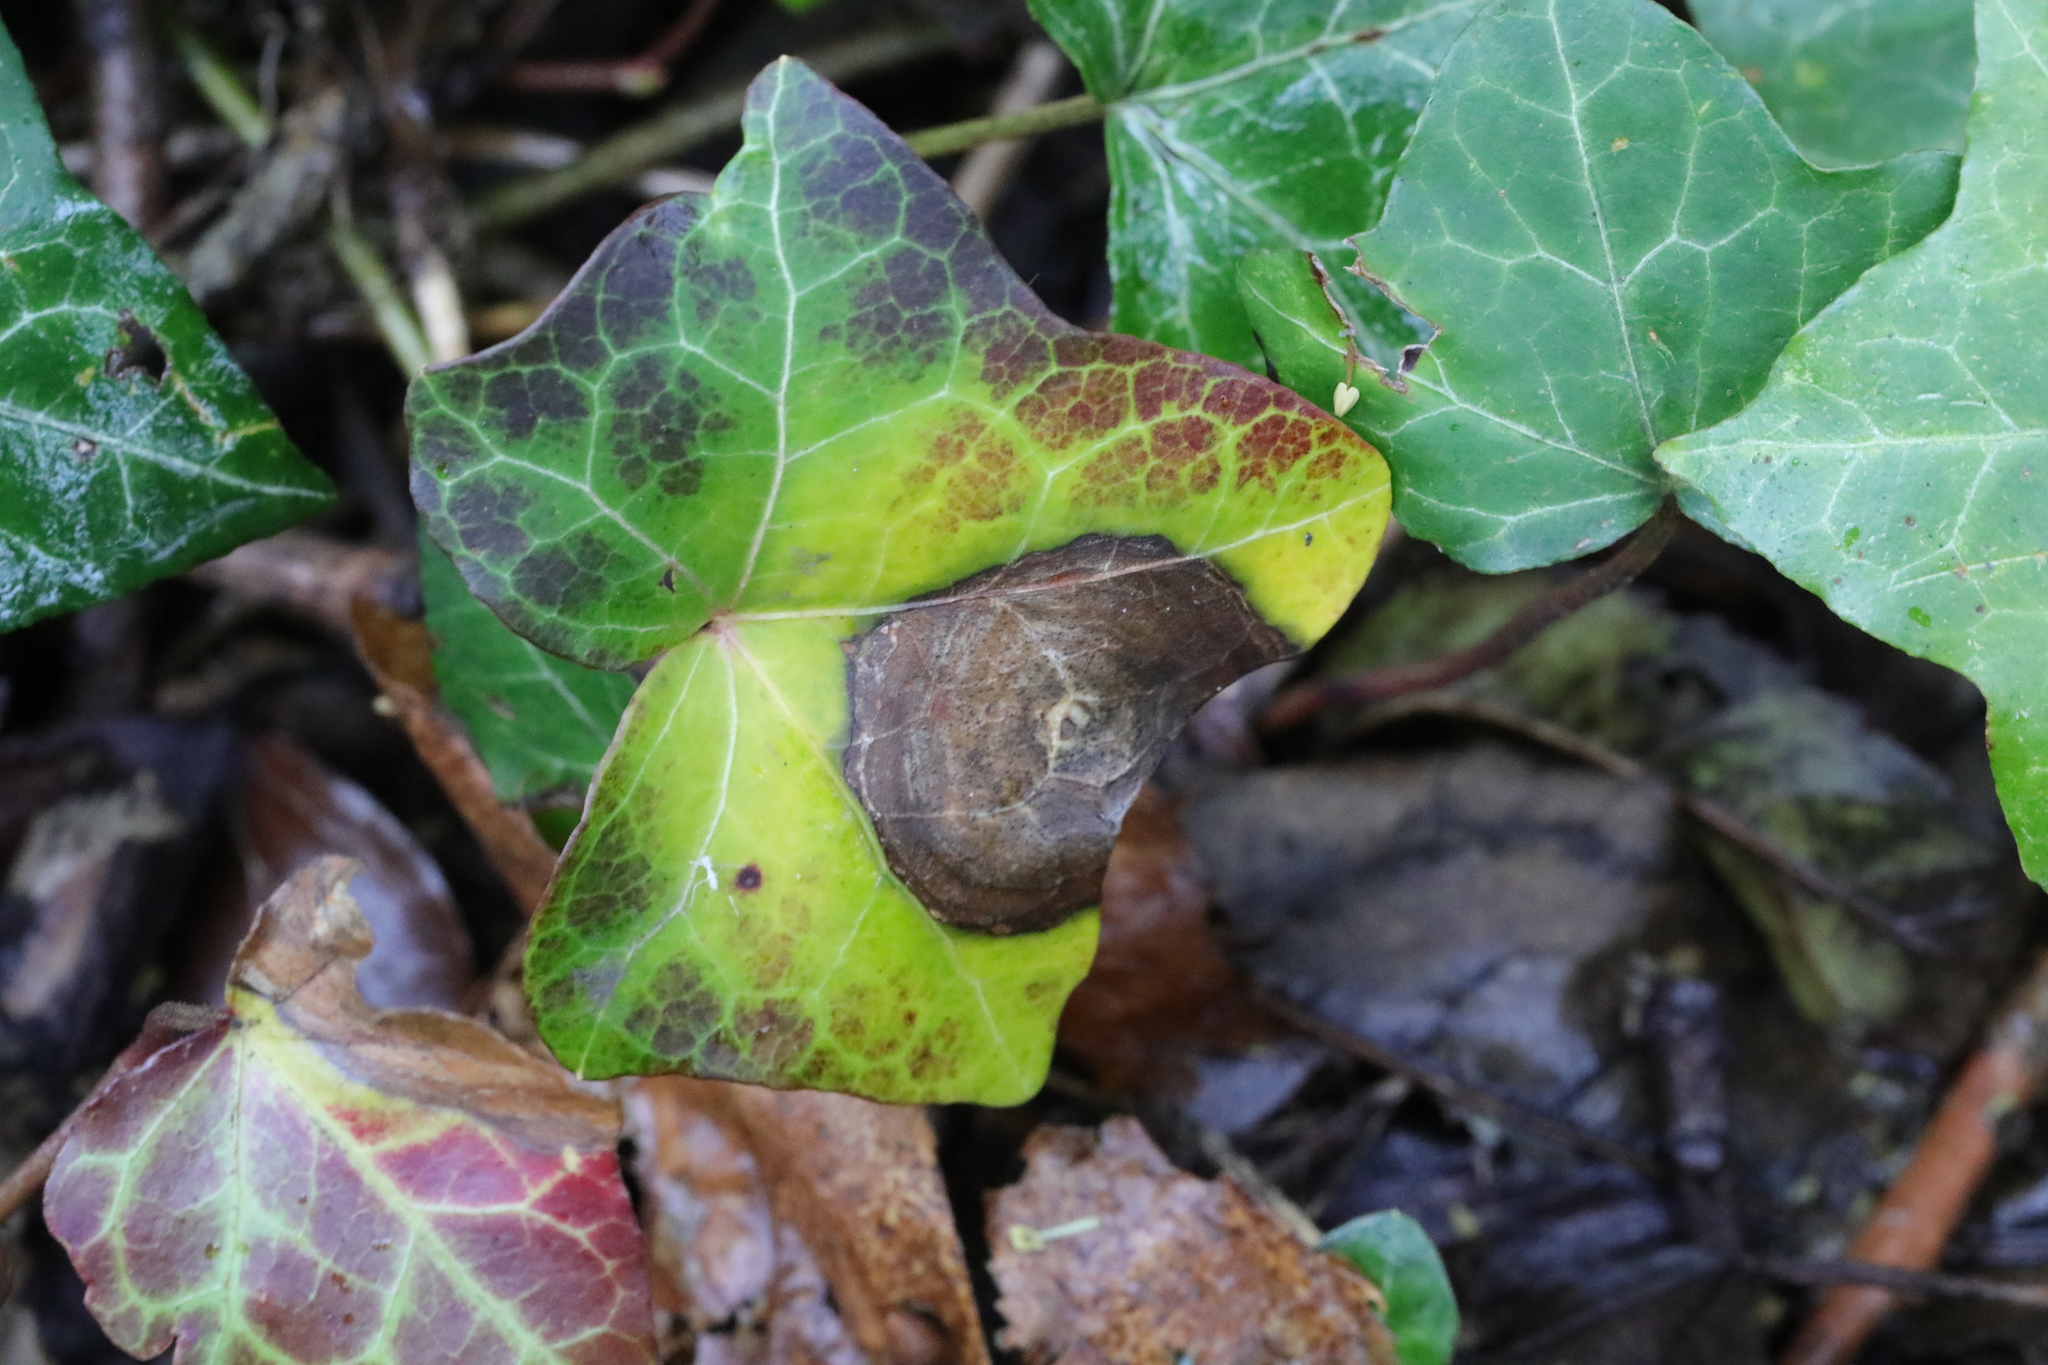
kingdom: Fungi
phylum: Ascomycota
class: Dothideomycetes
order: Pleosporales
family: Didymellaceae
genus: Boeremia
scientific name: Boeremia hedericola
